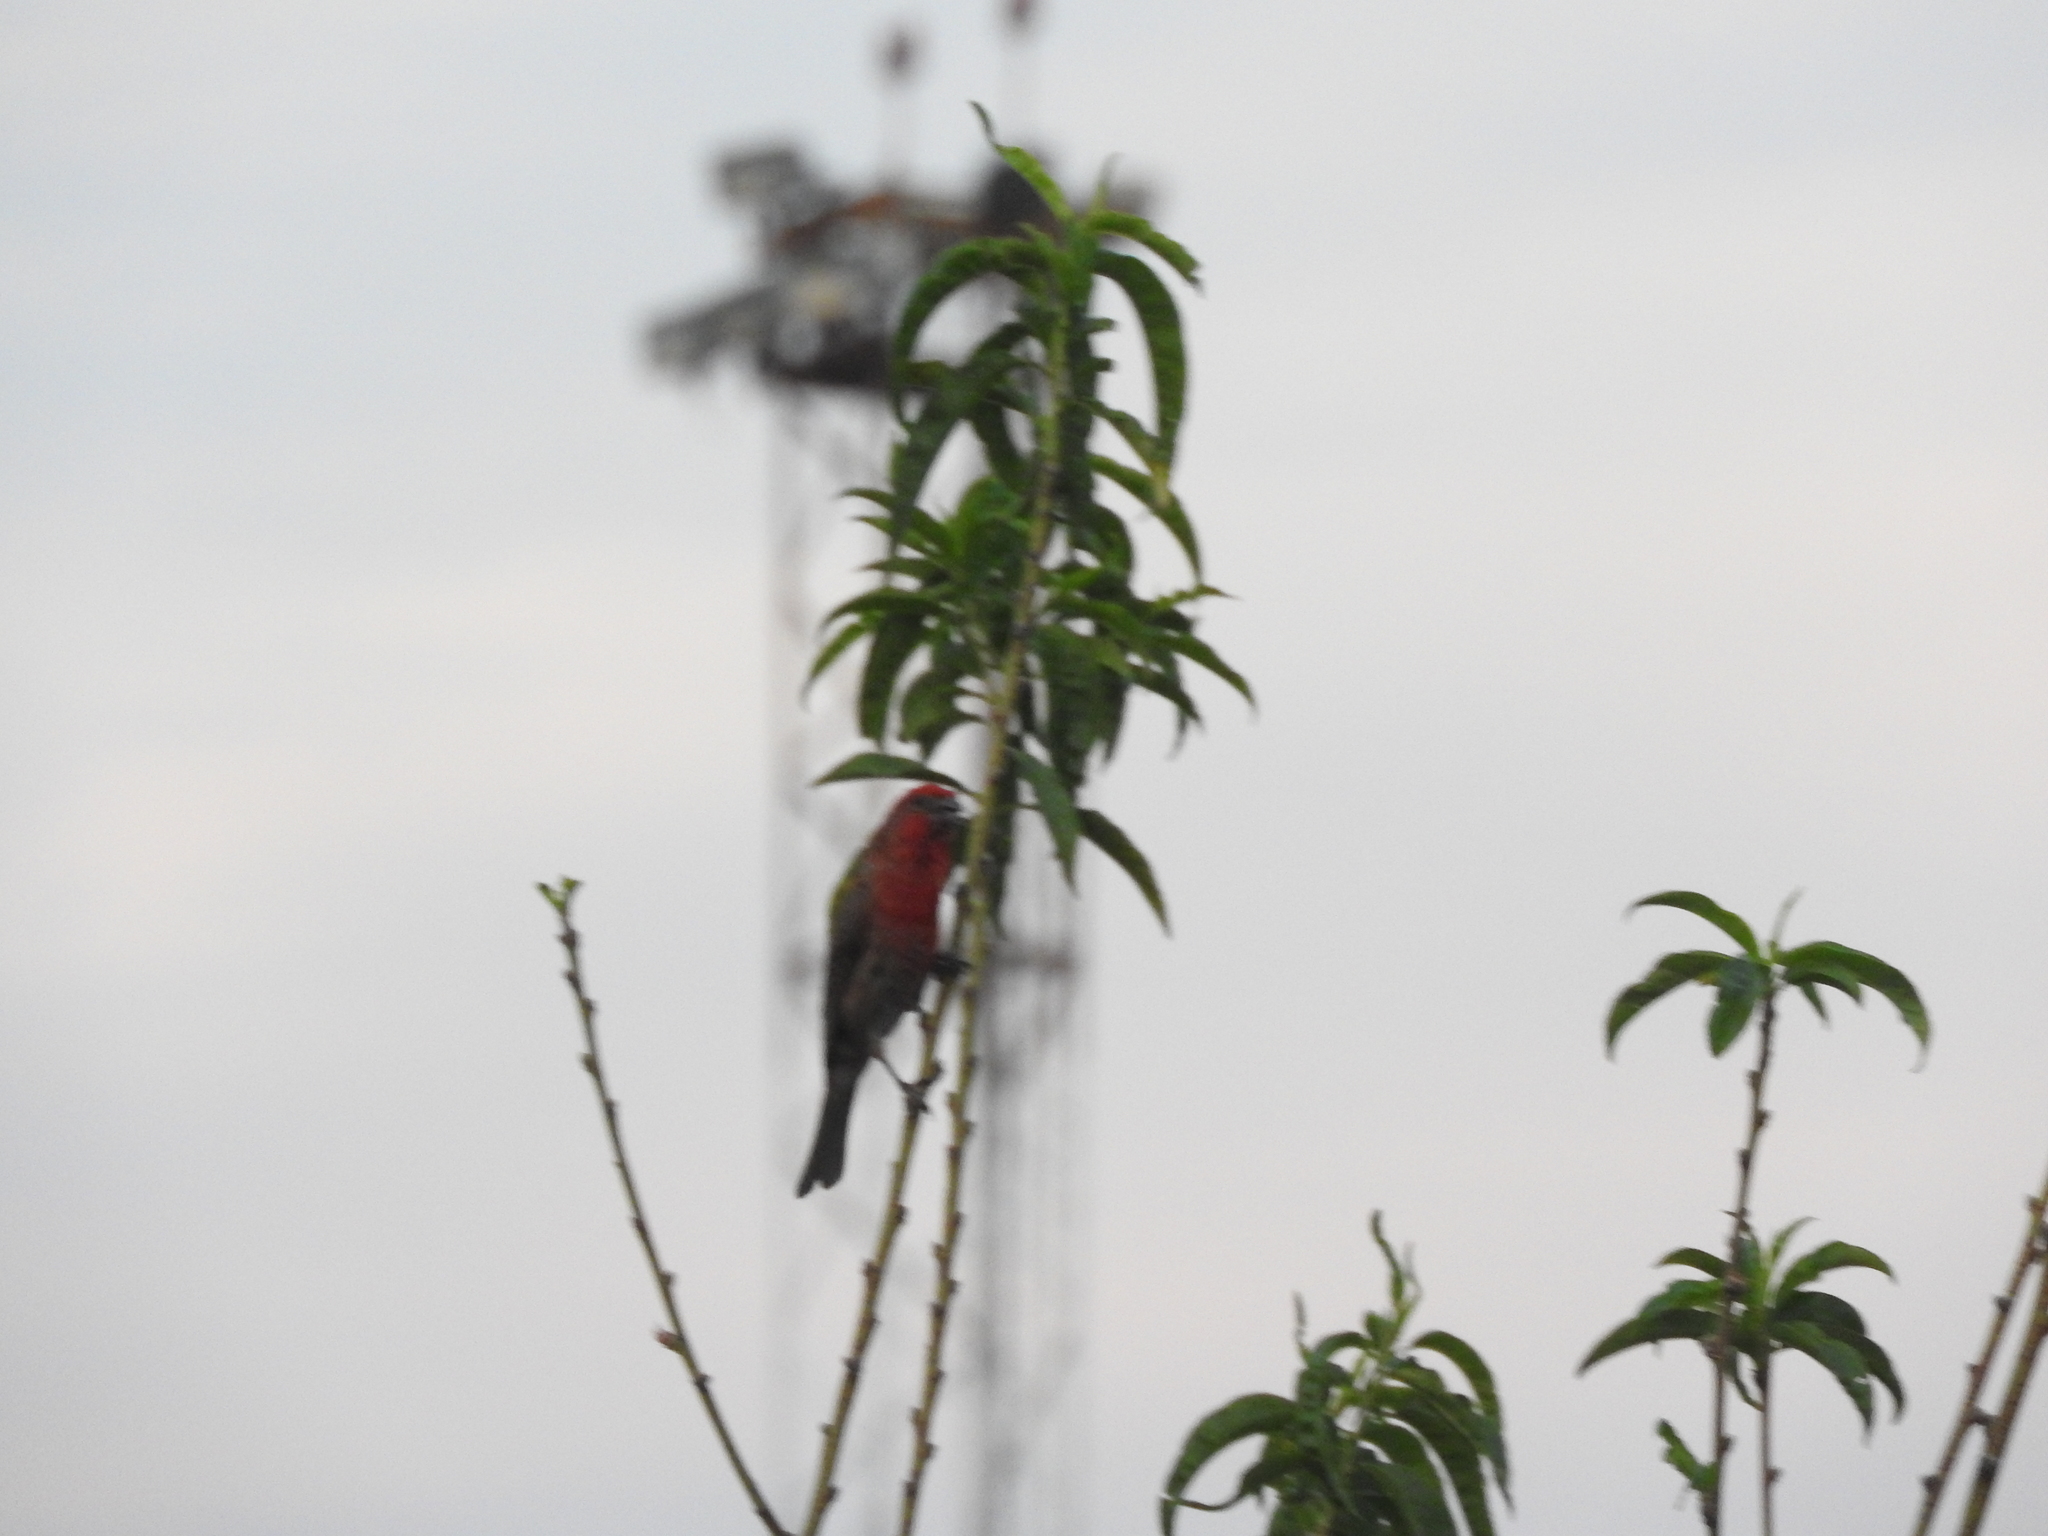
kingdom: Animalia
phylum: Chordata
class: Aves
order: Passeriformes
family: Fringillidae
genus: Haemorhous
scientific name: Haemorhous mexicanus
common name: House finch
